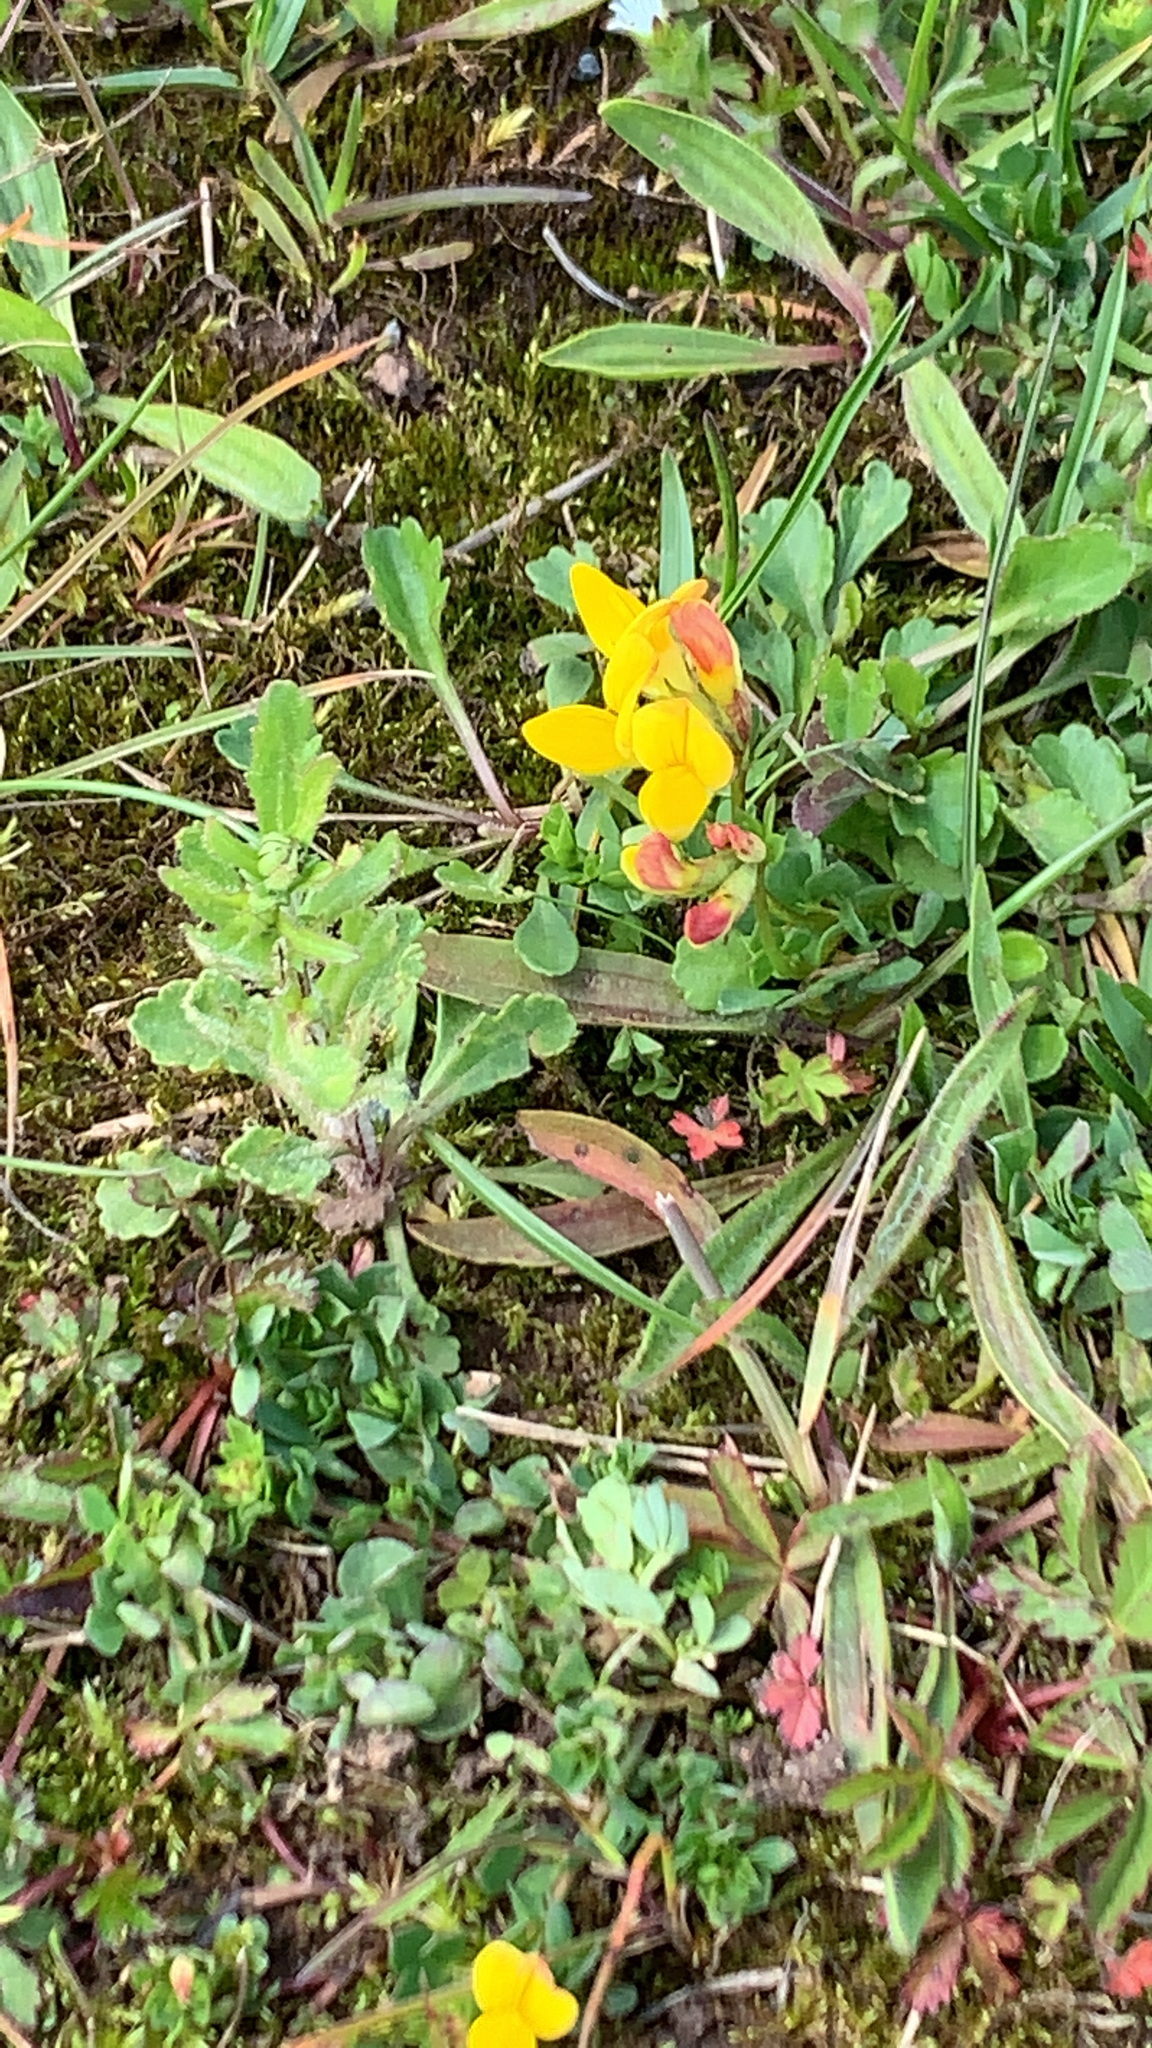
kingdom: Plantae
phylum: Tracheophyta
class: Magnoliopsida
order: Fabales
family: Fabaceae
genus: Lotus
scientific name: Lotus corniculatus
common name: Common bird's-foot-trefoil
